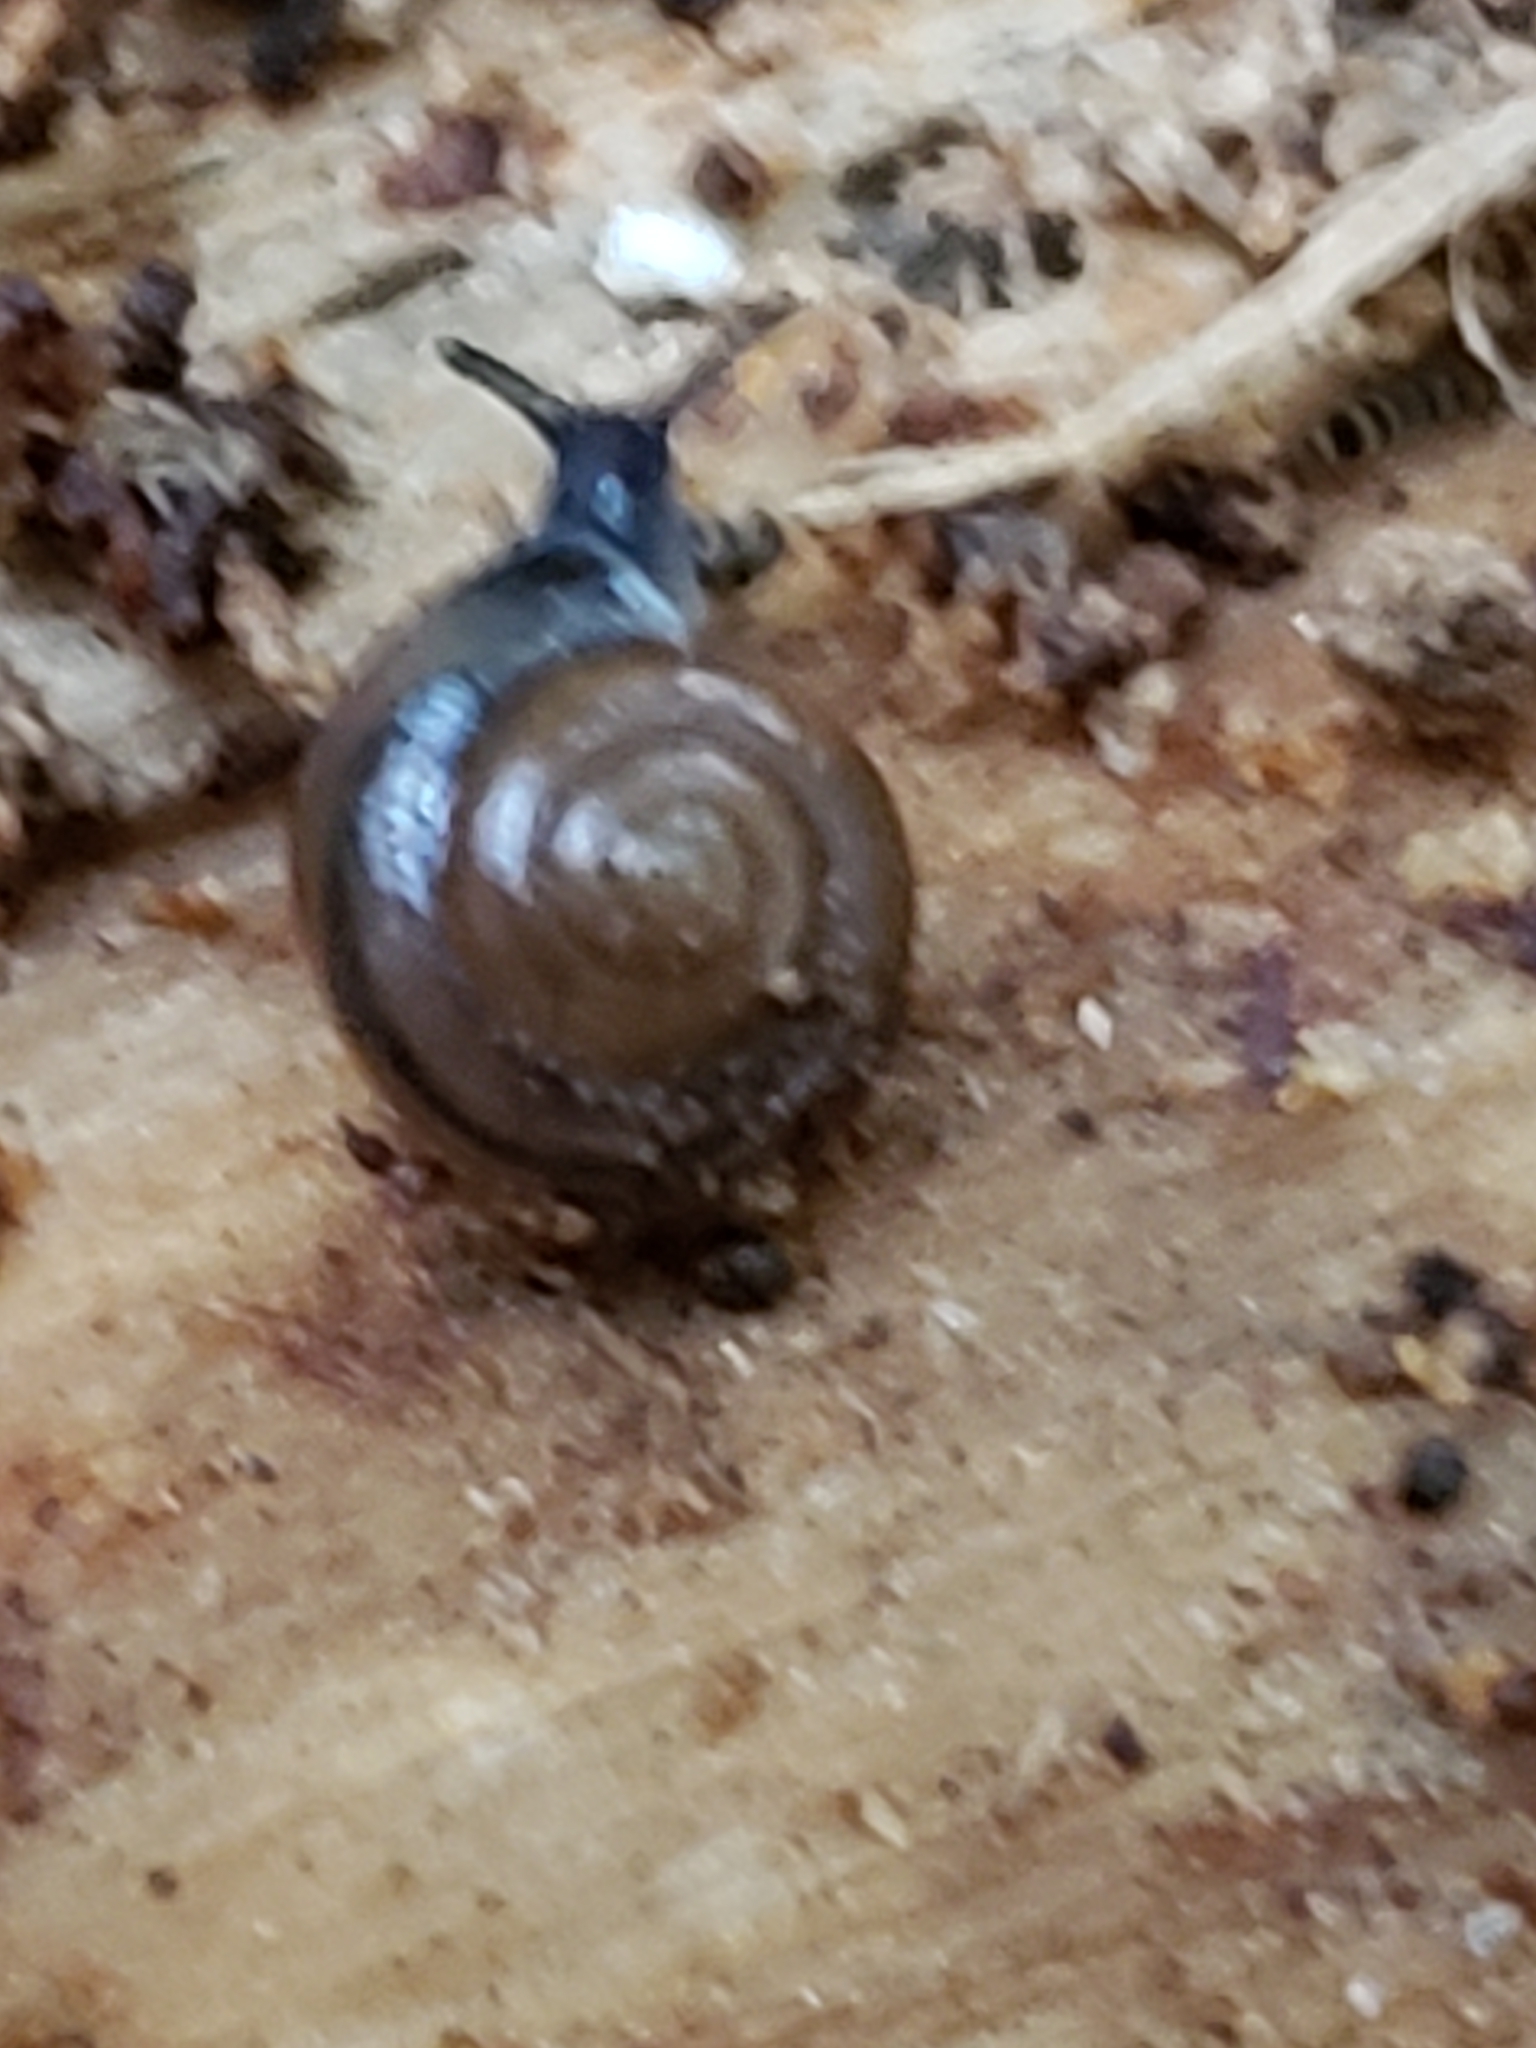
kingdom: Animalia
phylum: Mollusca
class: Gastropoda
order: Stylommatophora
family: Gastrodontidae
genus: Zonitoides
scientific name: Zonitoides arboreus
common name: Quick gloss
